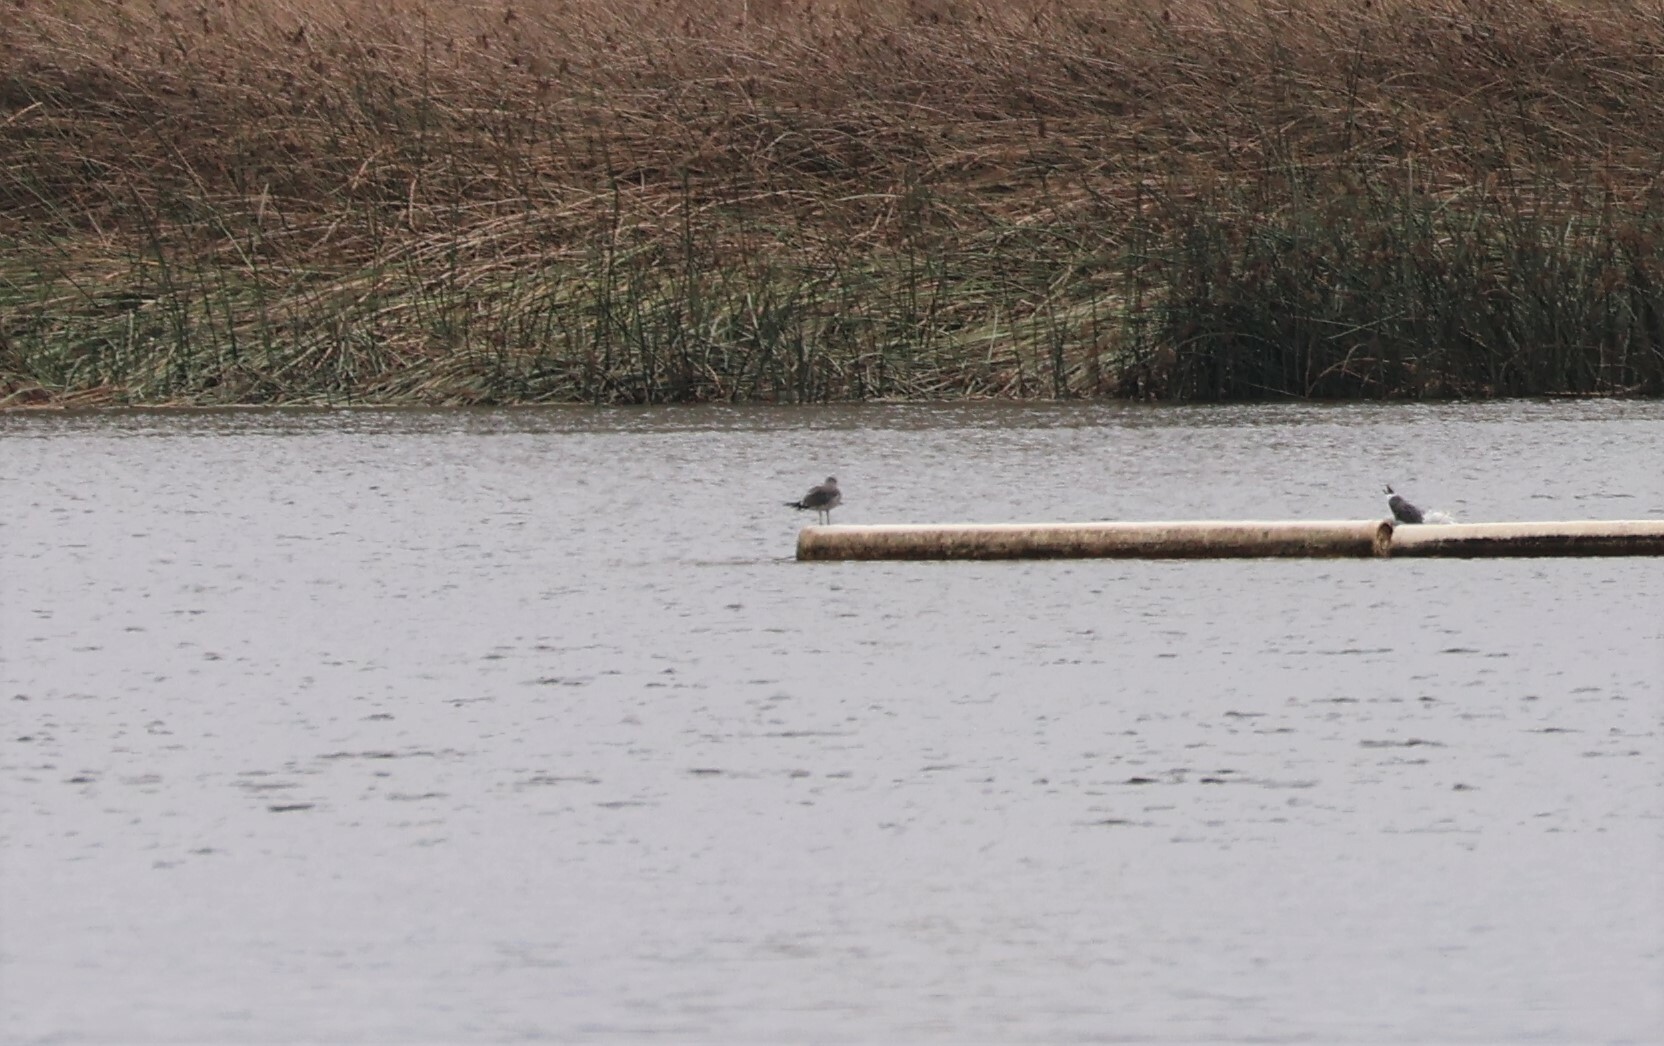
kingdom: Animalia
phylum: Chordata
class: Aves
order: Charadriiformes
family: Laridae
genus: Larus
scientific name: Larus heermanni
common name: Heermann's gull
